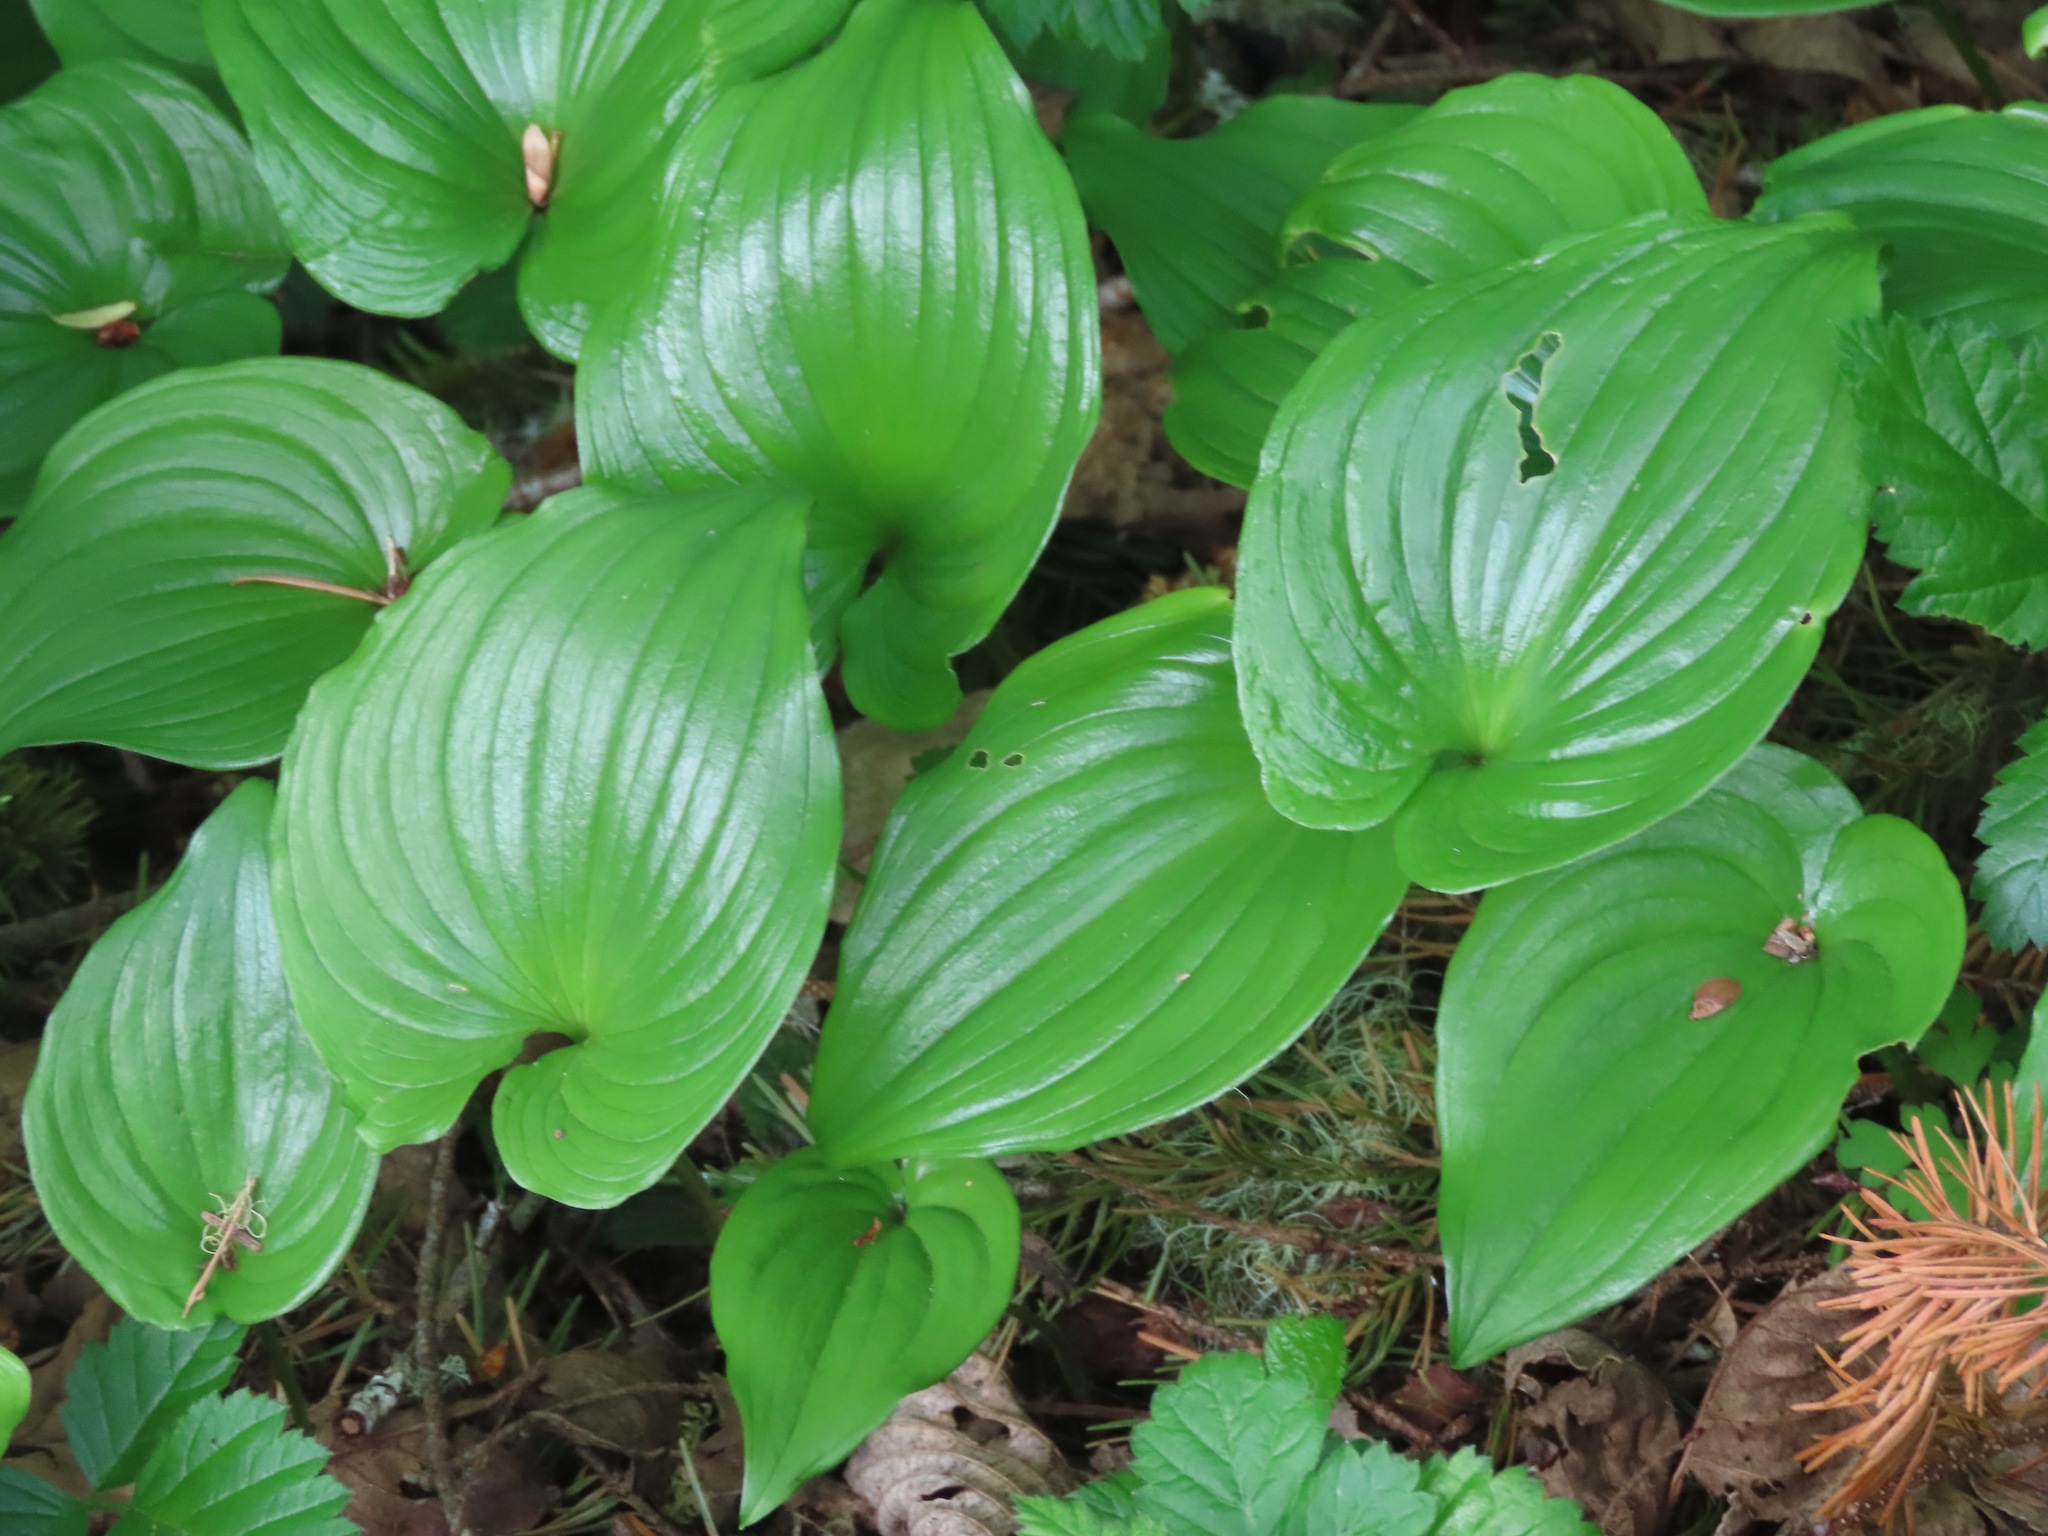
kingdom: Plantae
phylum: Tracheophyta
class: Liliopsida
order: Asparagales
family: Asparagaceae
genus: Maianthemum
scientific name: Maianthemum dilatatum
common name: False lily-of-the-valley
